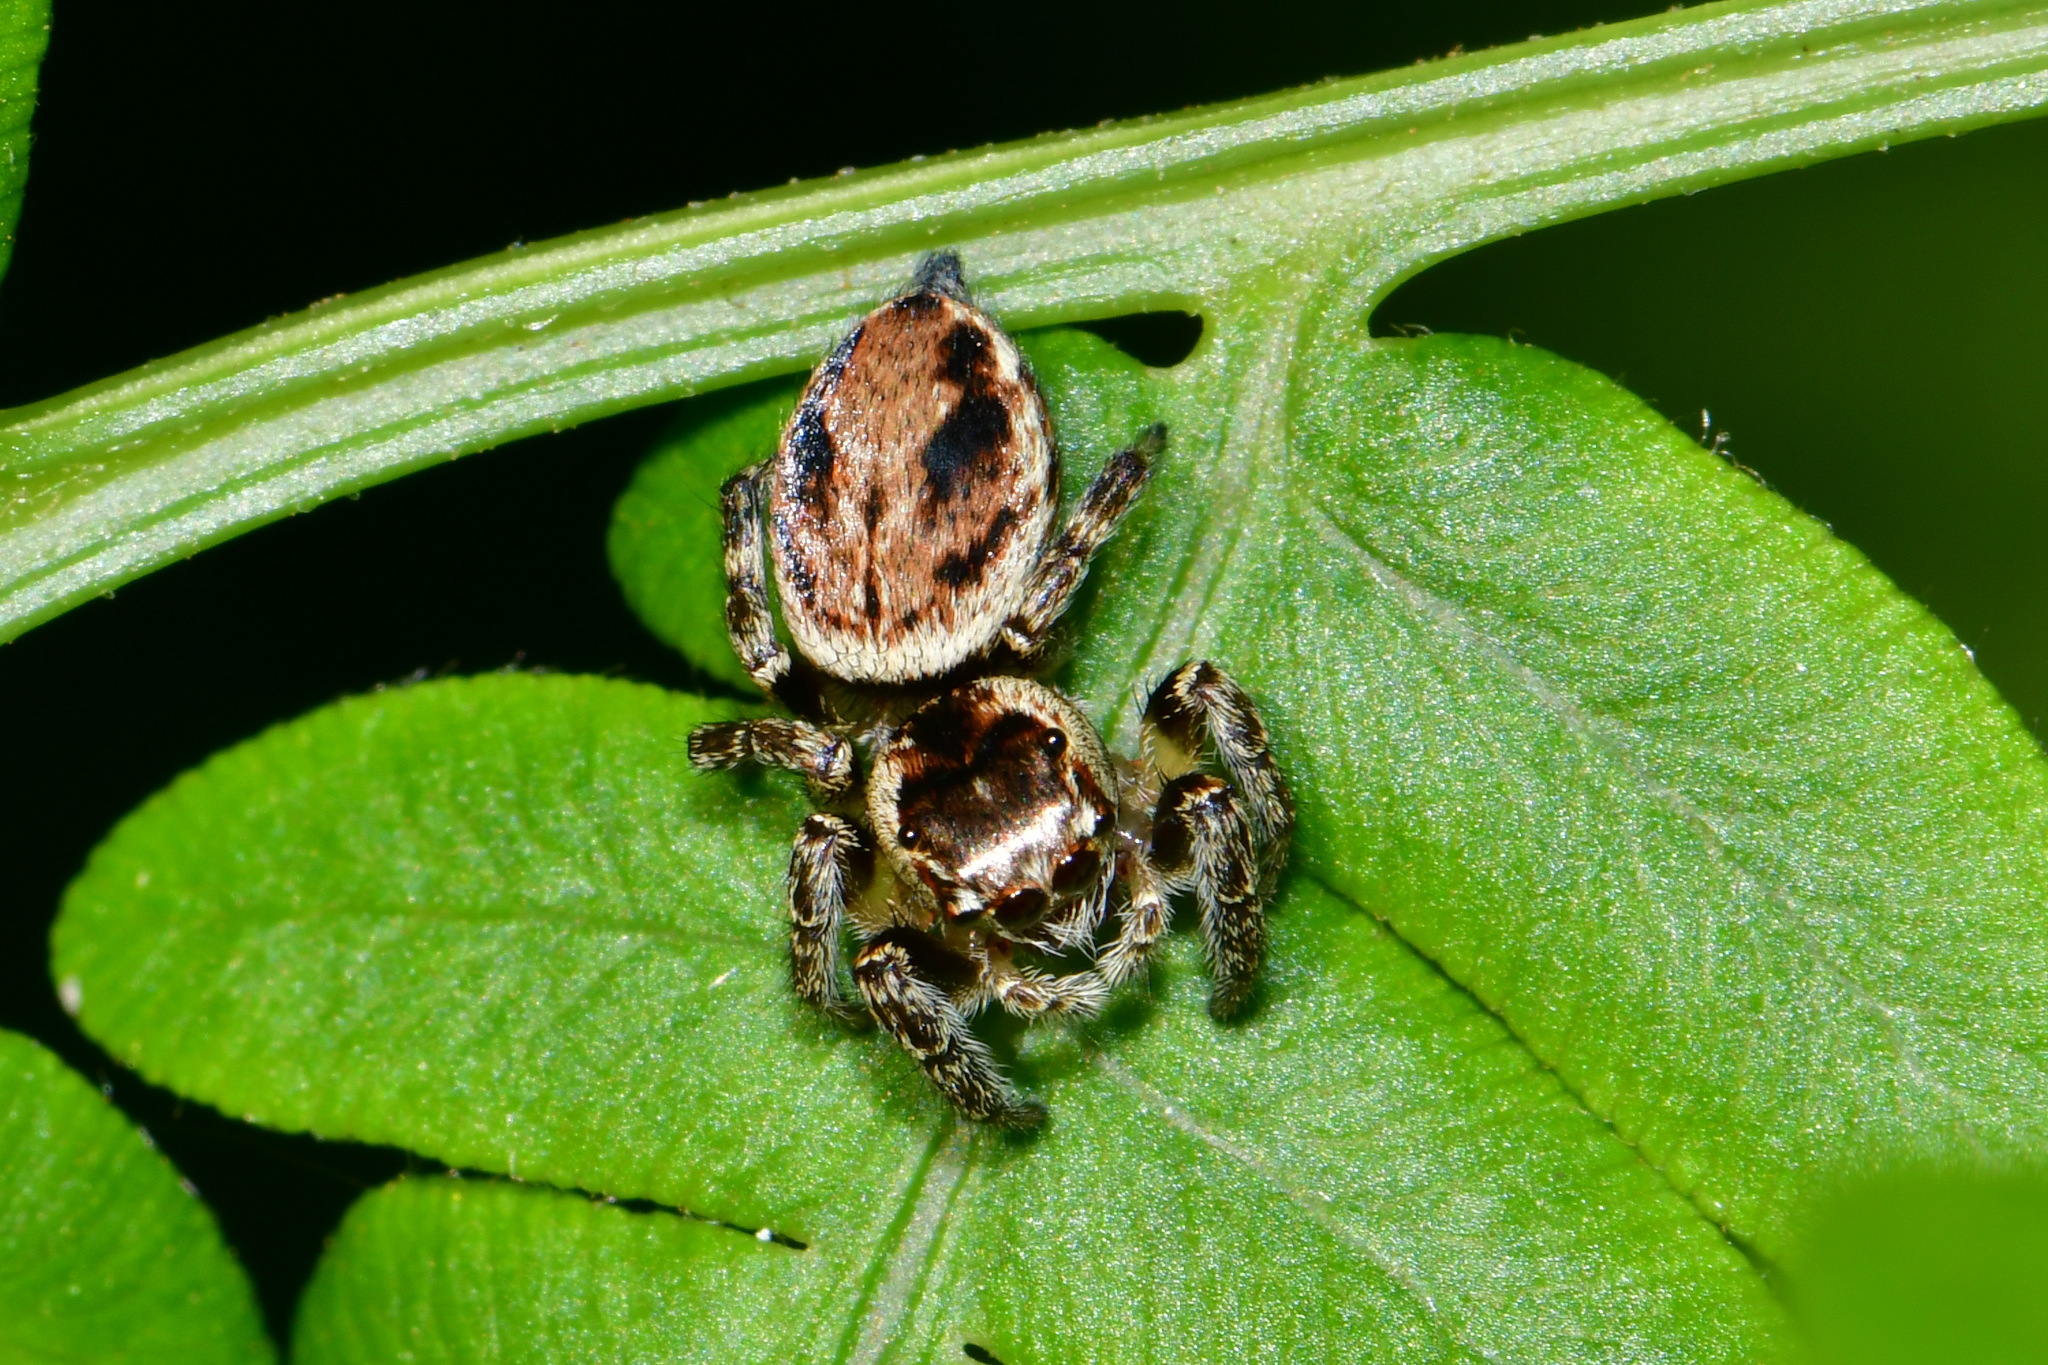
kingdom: Animalia
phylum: Arthropoda
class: Arachnida
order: Araneae
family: Salticidae
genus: Evarcha
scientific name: Evarcha falcata
